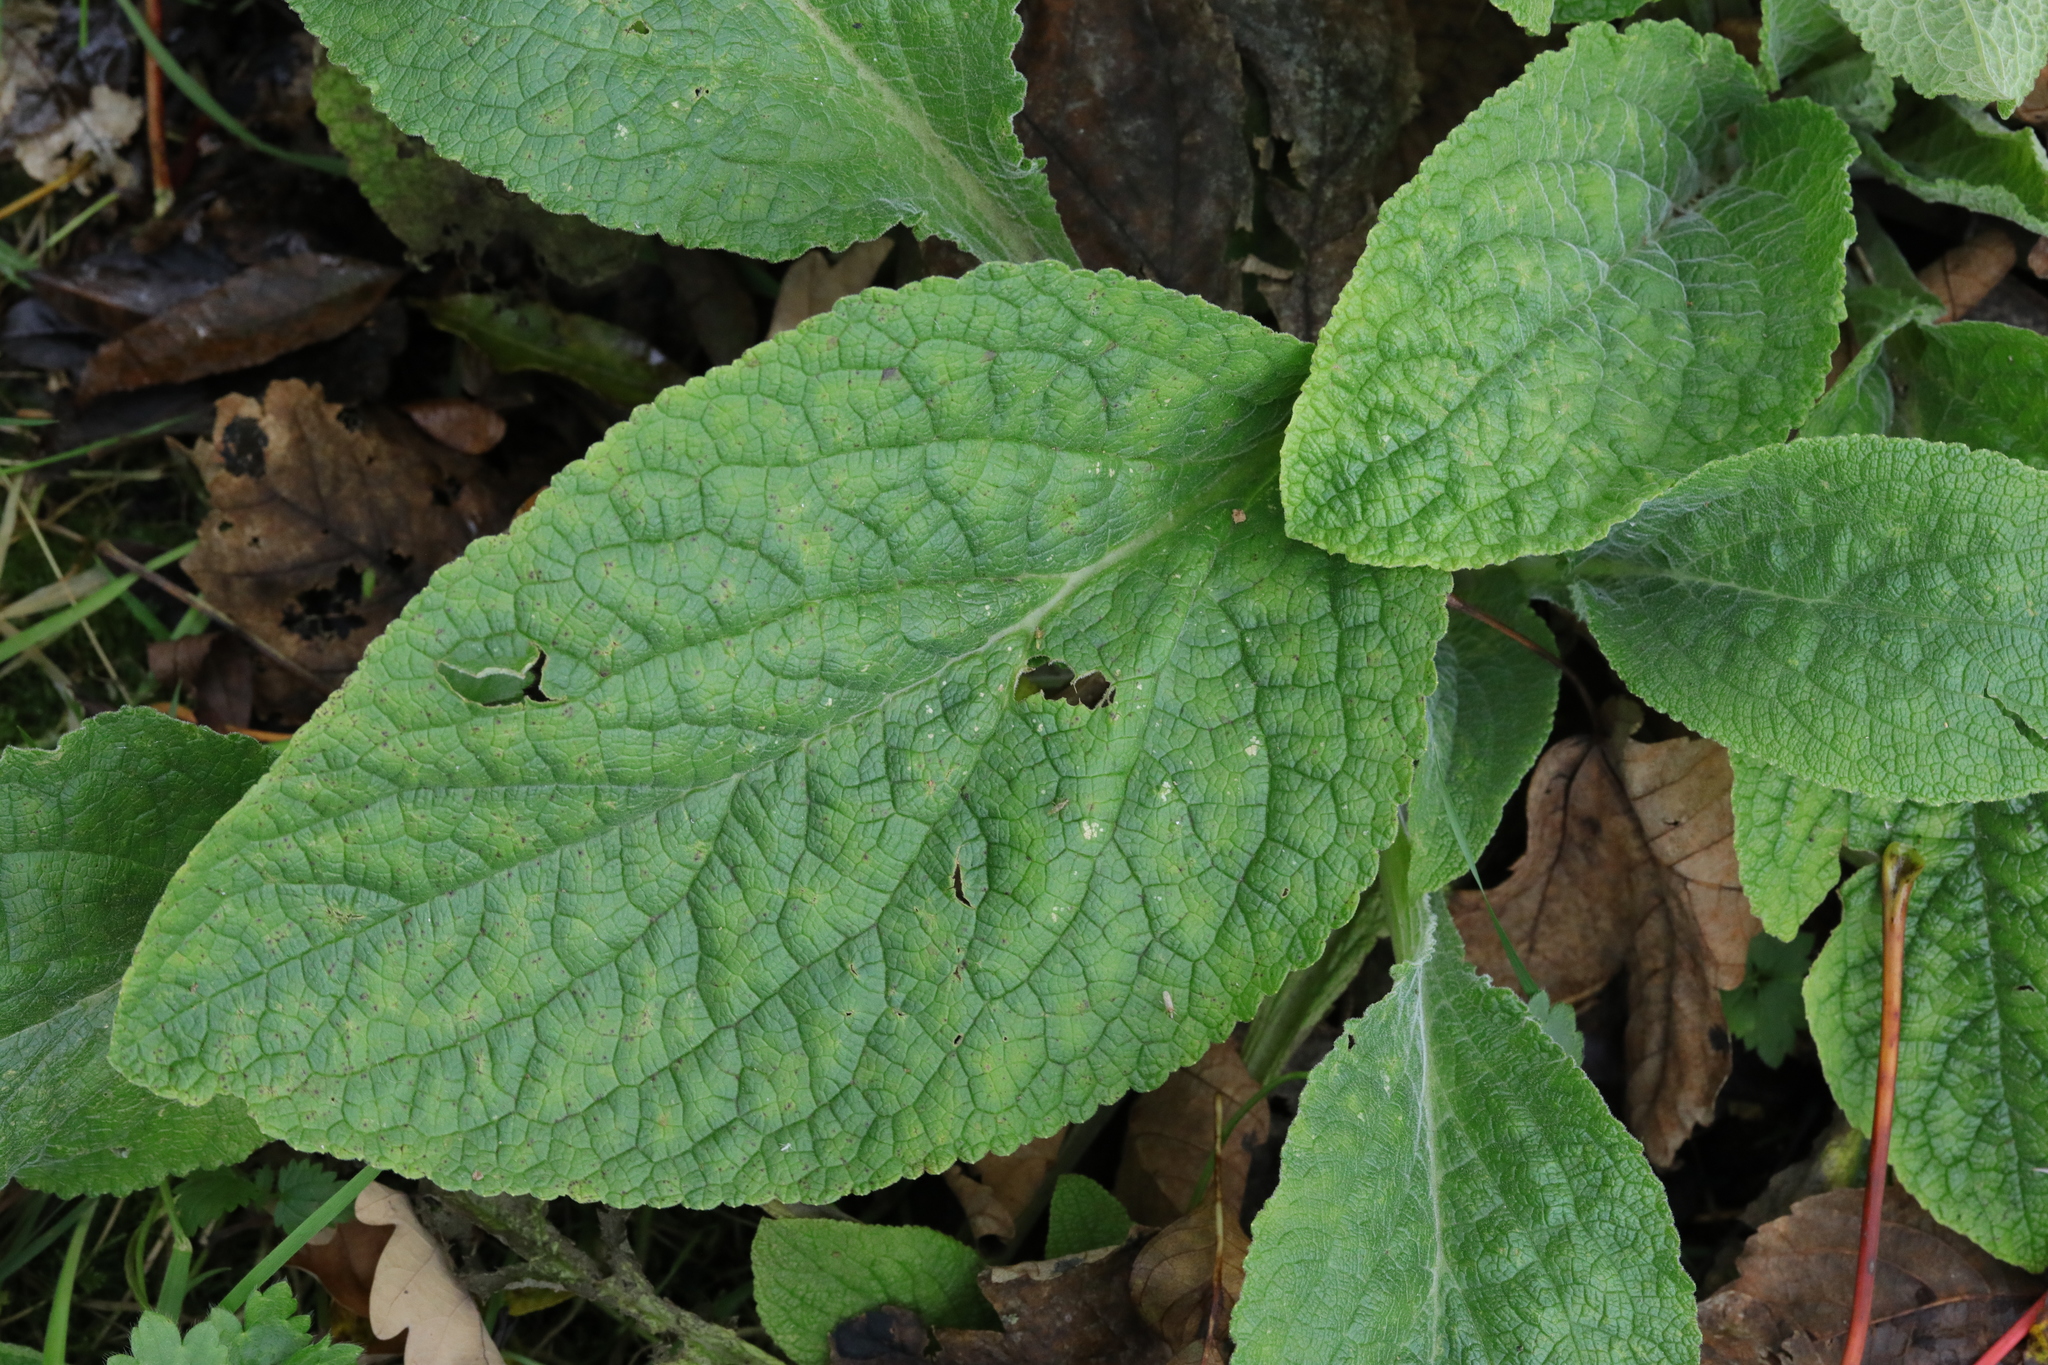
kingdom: Plantae
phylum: Tracheophyta
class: Magnoliopsida
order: Lamiales
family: Plantaginaceae
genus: Digitalis
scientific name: Digitalis purpurea
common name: Foxglove
